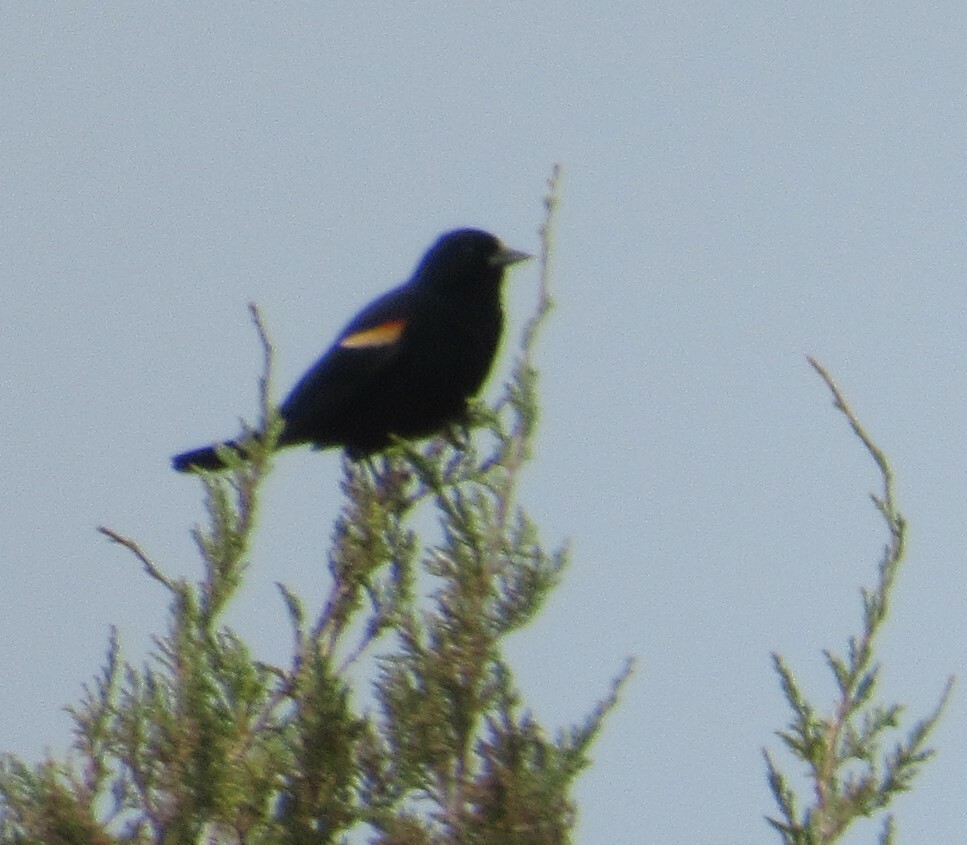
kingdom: Animalia
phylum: Chordata
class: Aves
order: Passeriformes
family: Icteridae
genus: Agelaius
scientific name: Agelaius phoeniceus
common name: Red-winged blackbird
